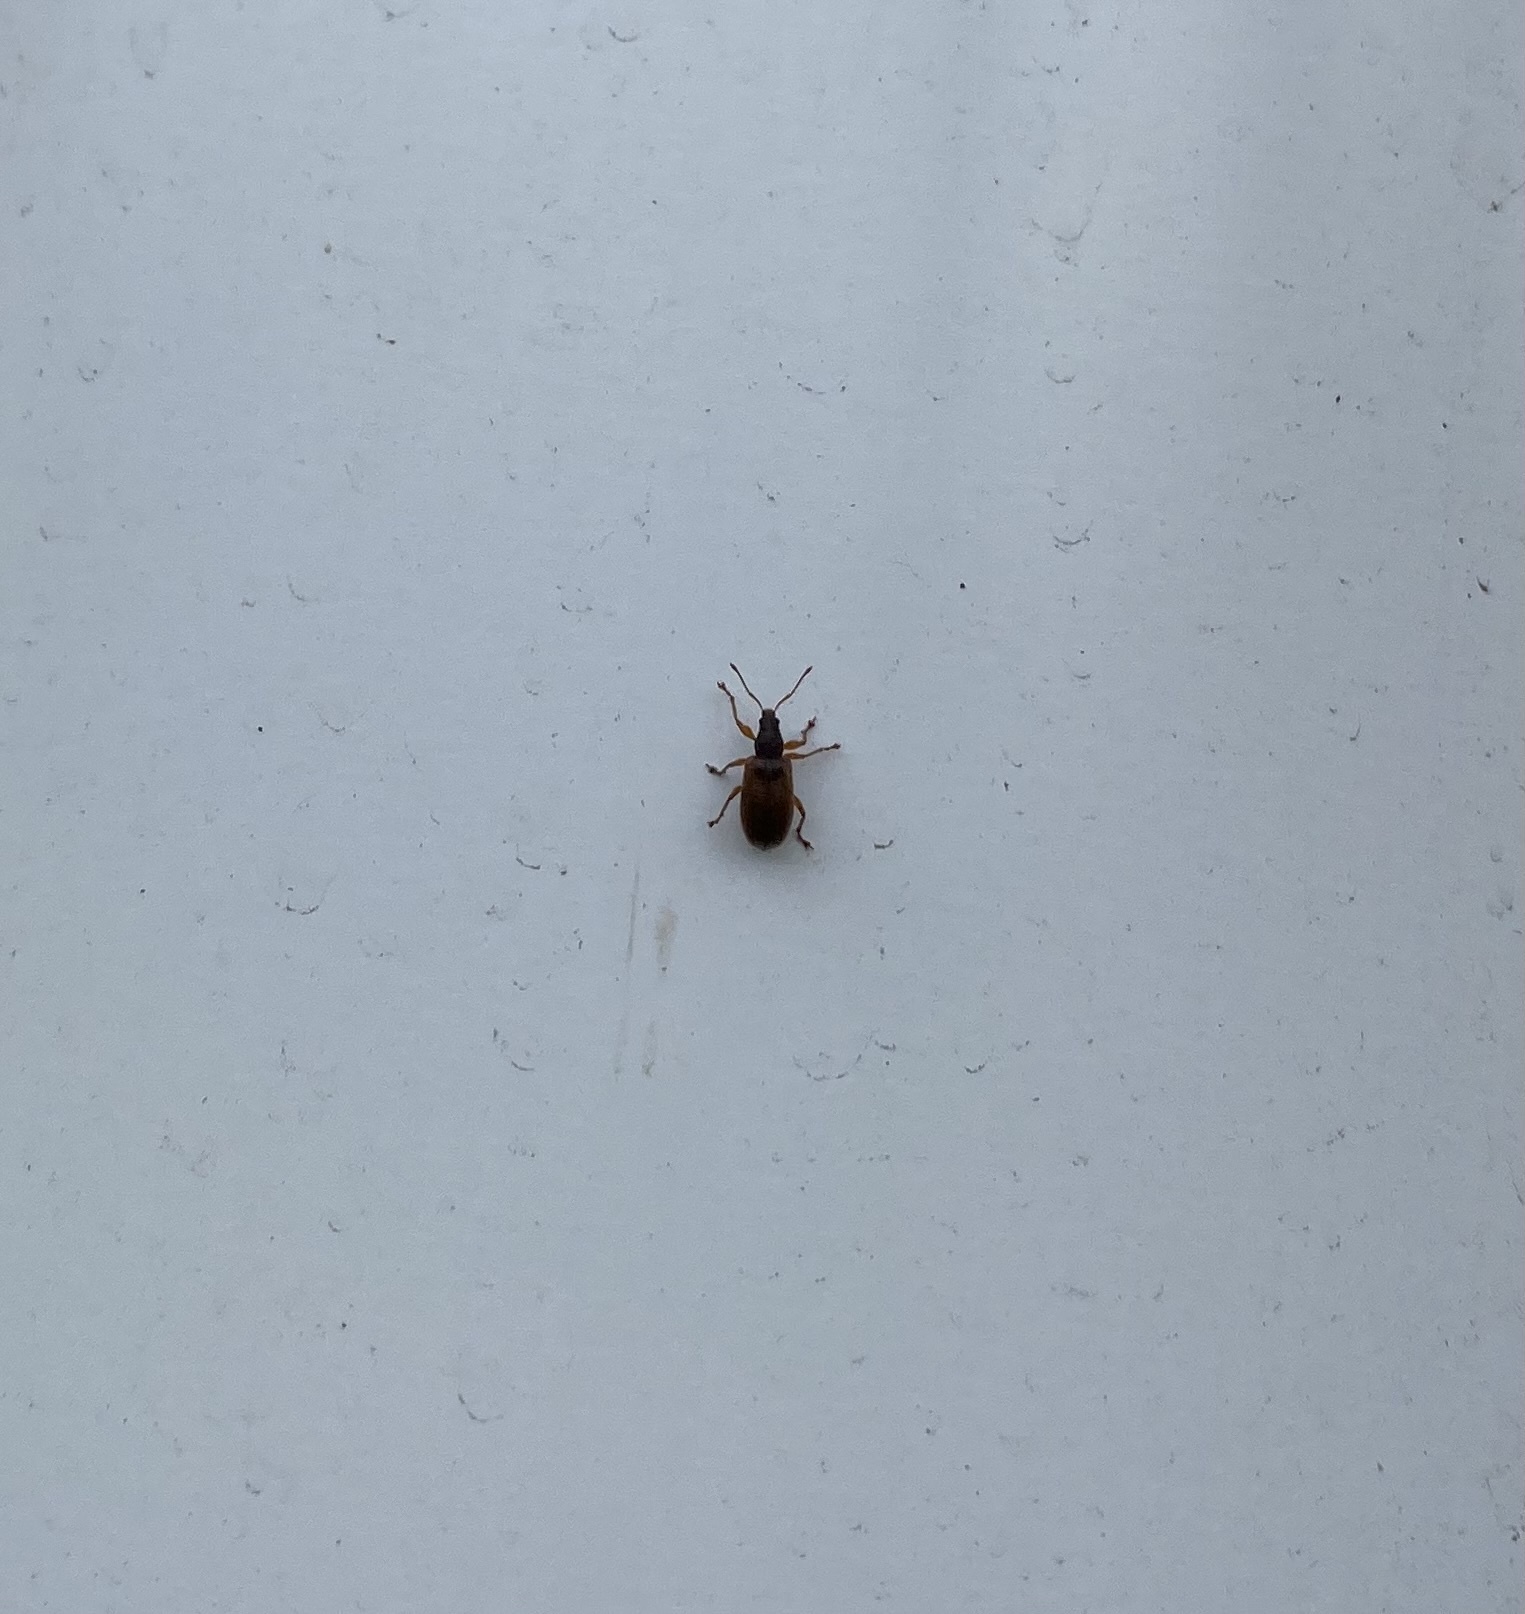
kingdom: Animalia
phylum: Arthropoda
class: Insecta
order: Coleoptera
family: Curculionidae
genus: Phyllobius
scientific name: Phyllobius oblongus
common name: Brown leaf weevil
